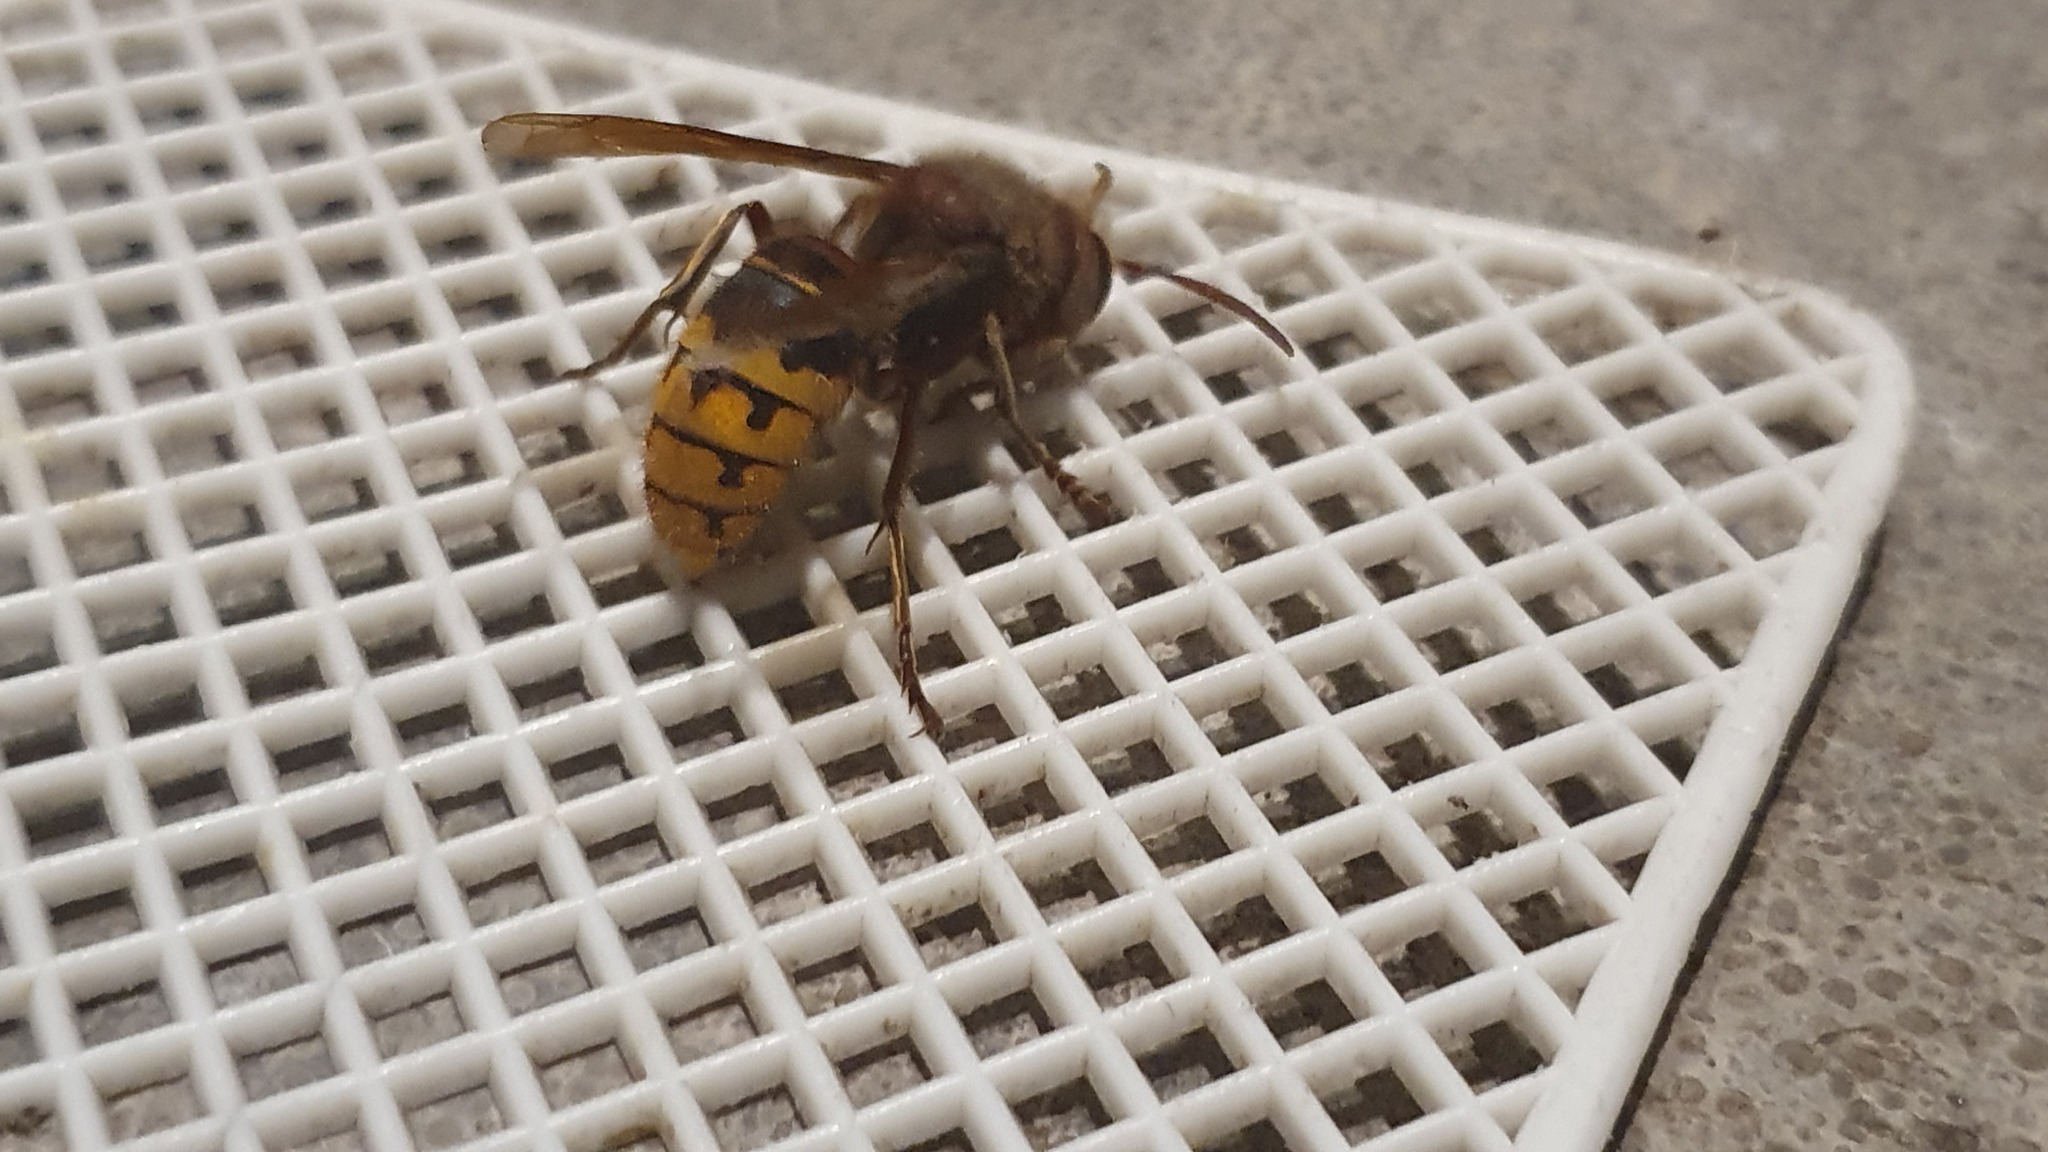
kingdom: Animalia
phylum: Arthropoda
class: Insecta
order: Hymenoptera
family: Vespidae
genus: Vespa
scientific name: Vespa crabro
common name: Hornet
